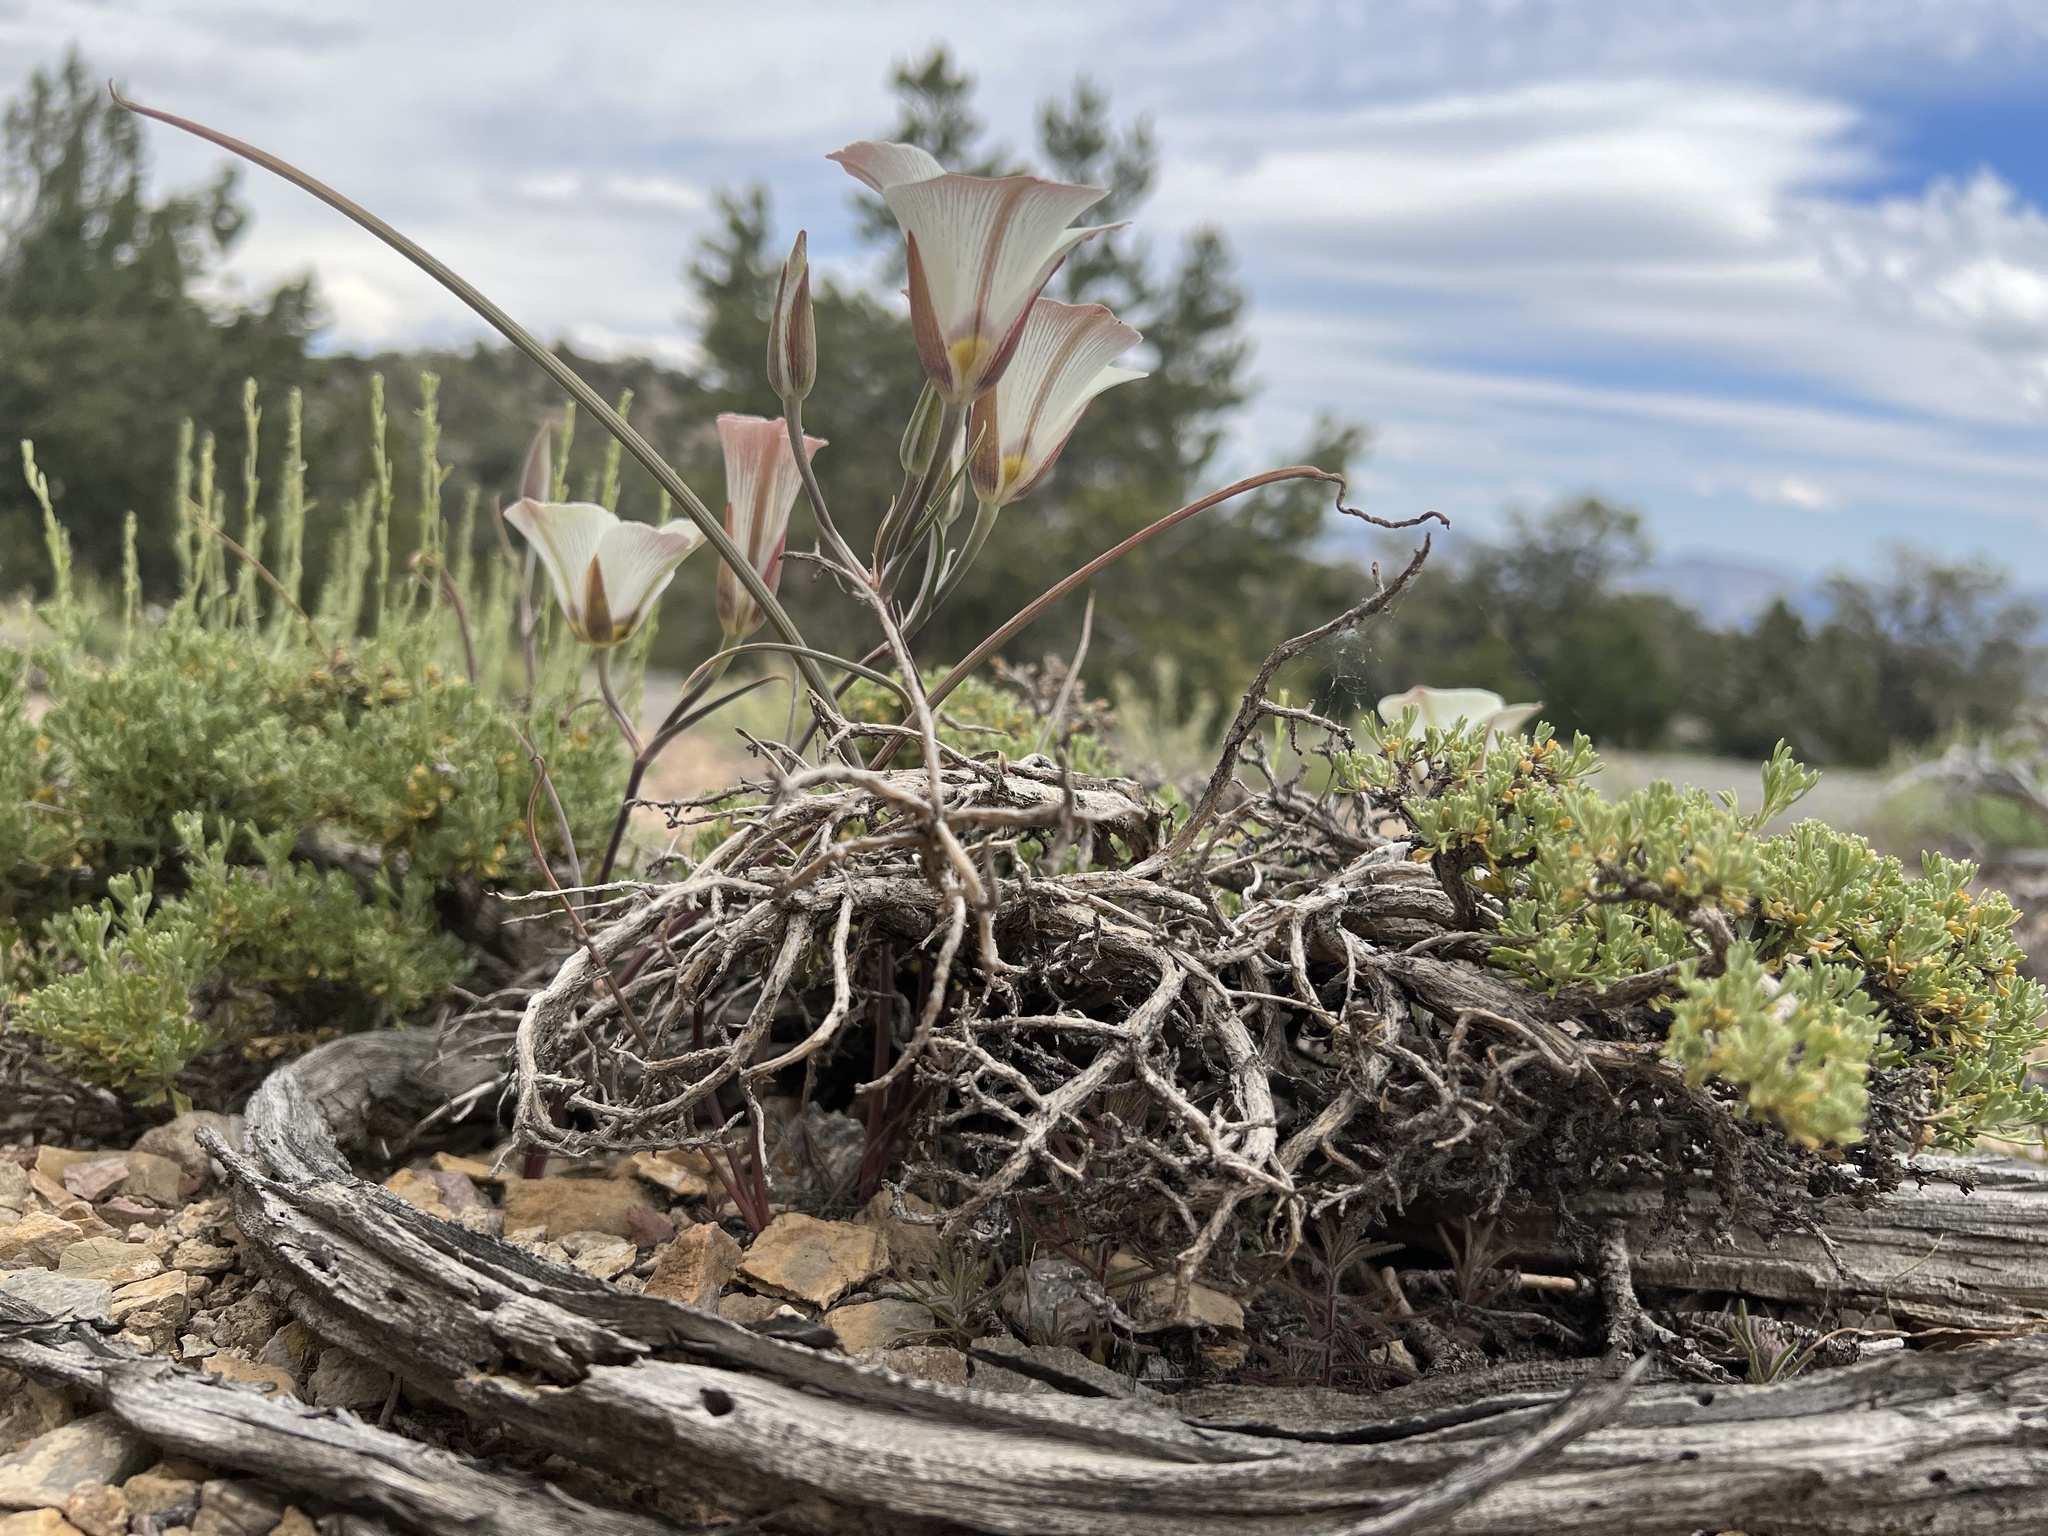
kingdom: Plantae
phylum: Tracheophyta
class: Liliopsida
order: Liliales
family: Liliaceae
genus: Calochortus
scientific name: Calochortus bruneaunis
